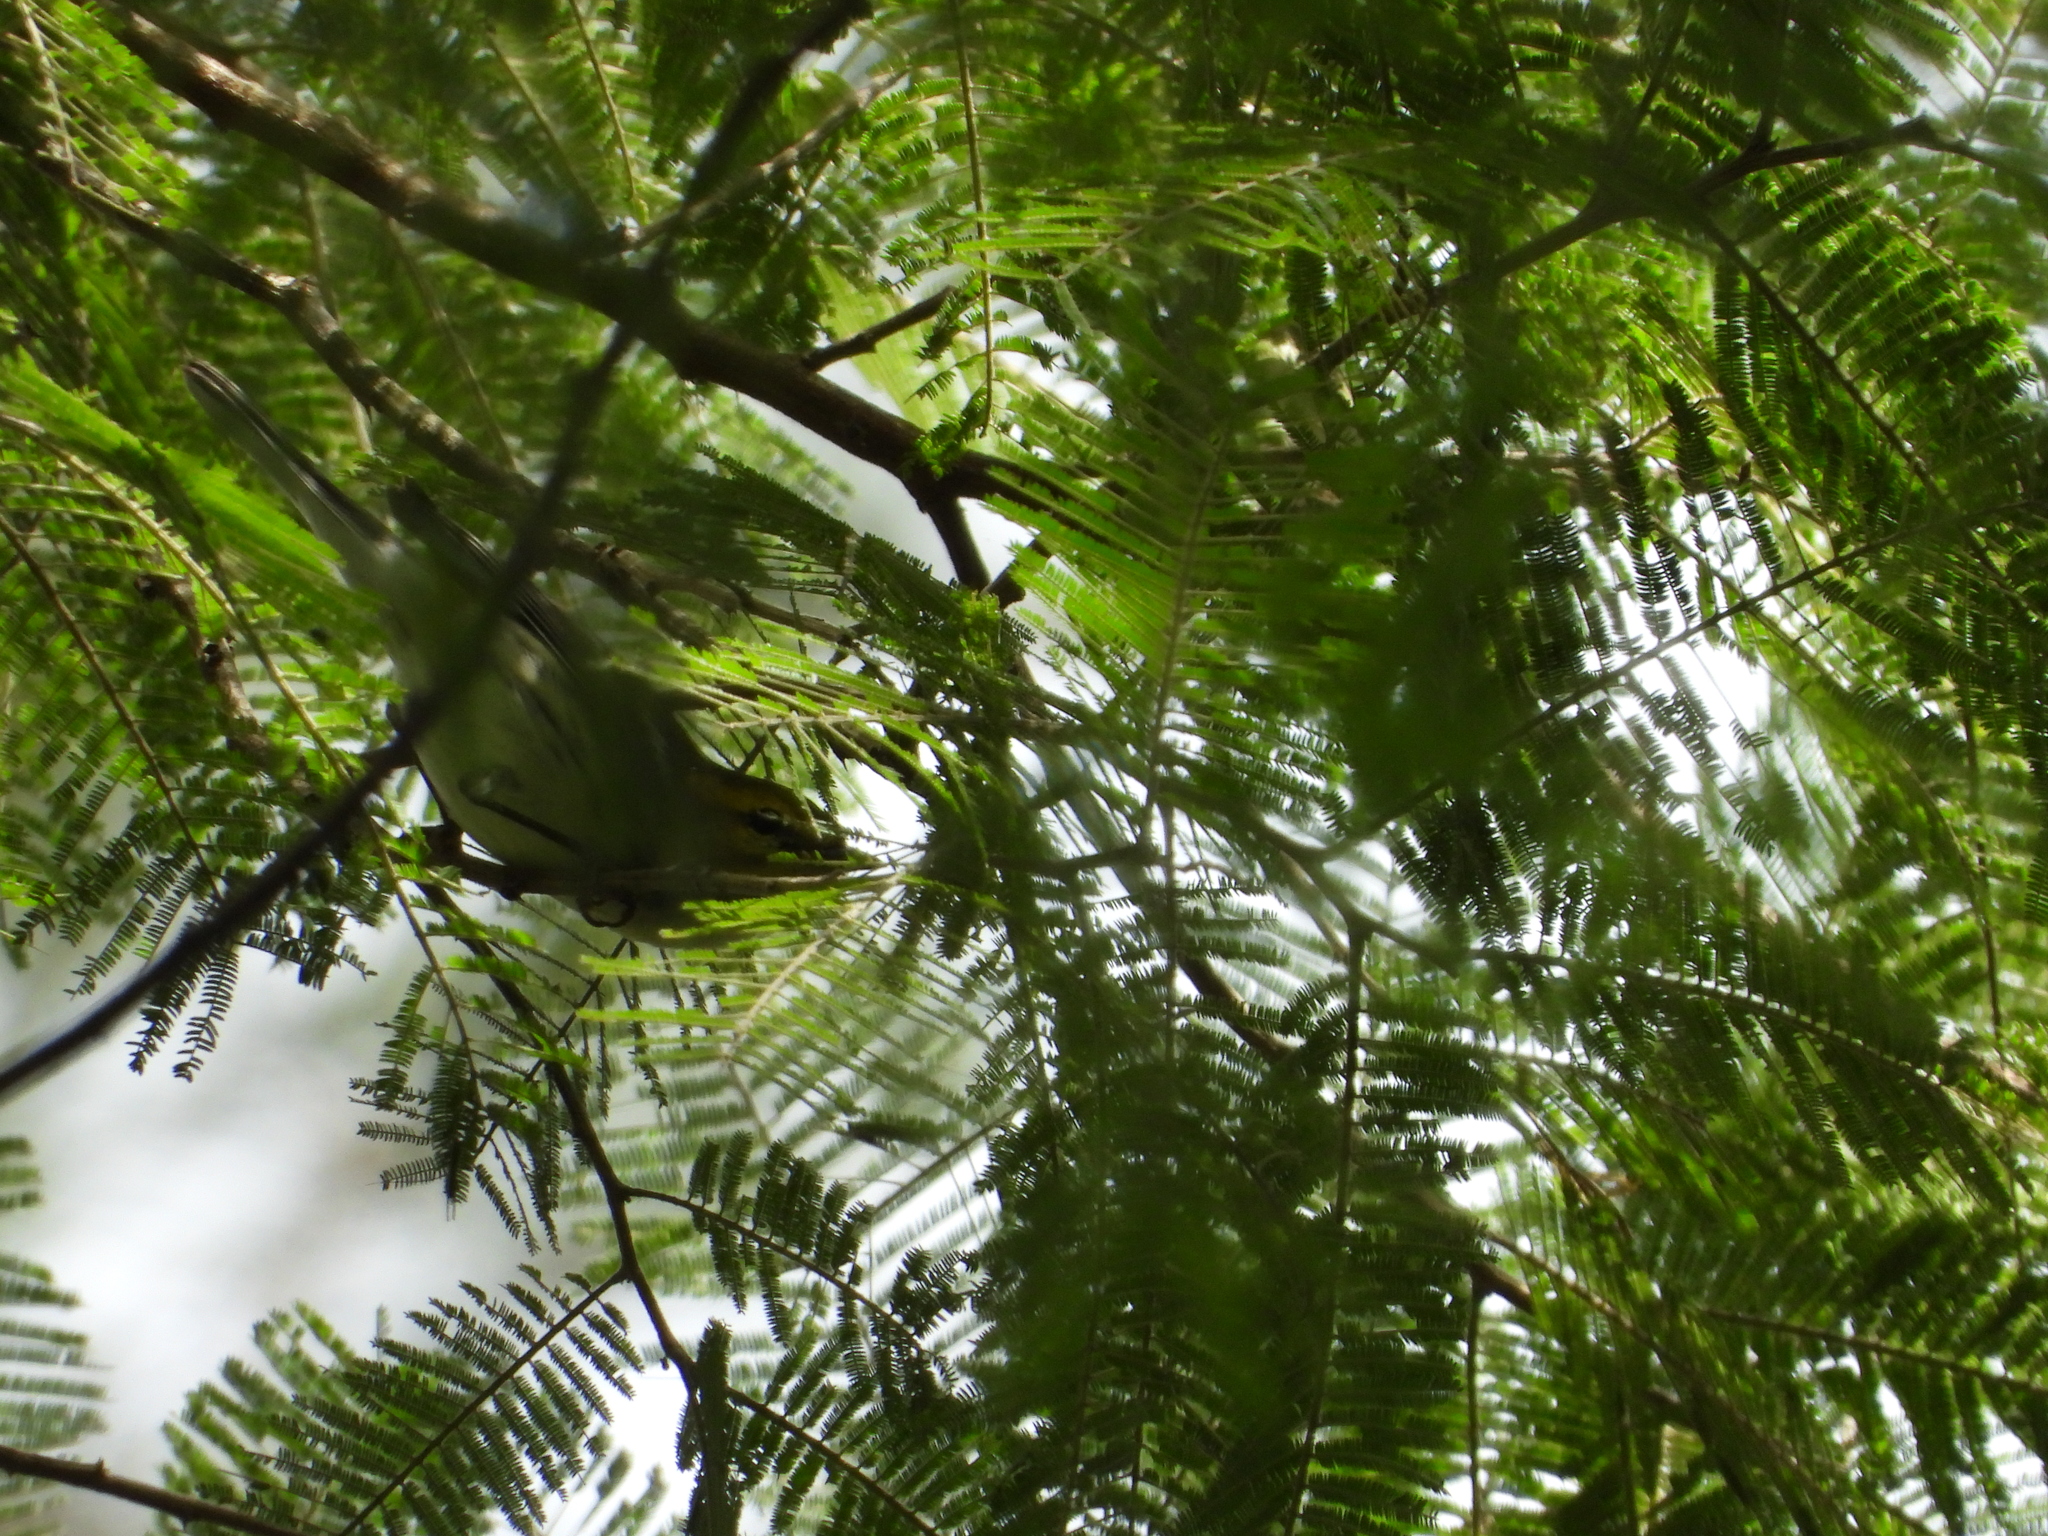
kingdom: Animalia
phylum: Chordata
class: Aves
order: Passeriformes
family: Parulidae
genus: Setophaga
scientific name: Setophaga virens
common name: Black-throated green warbler
